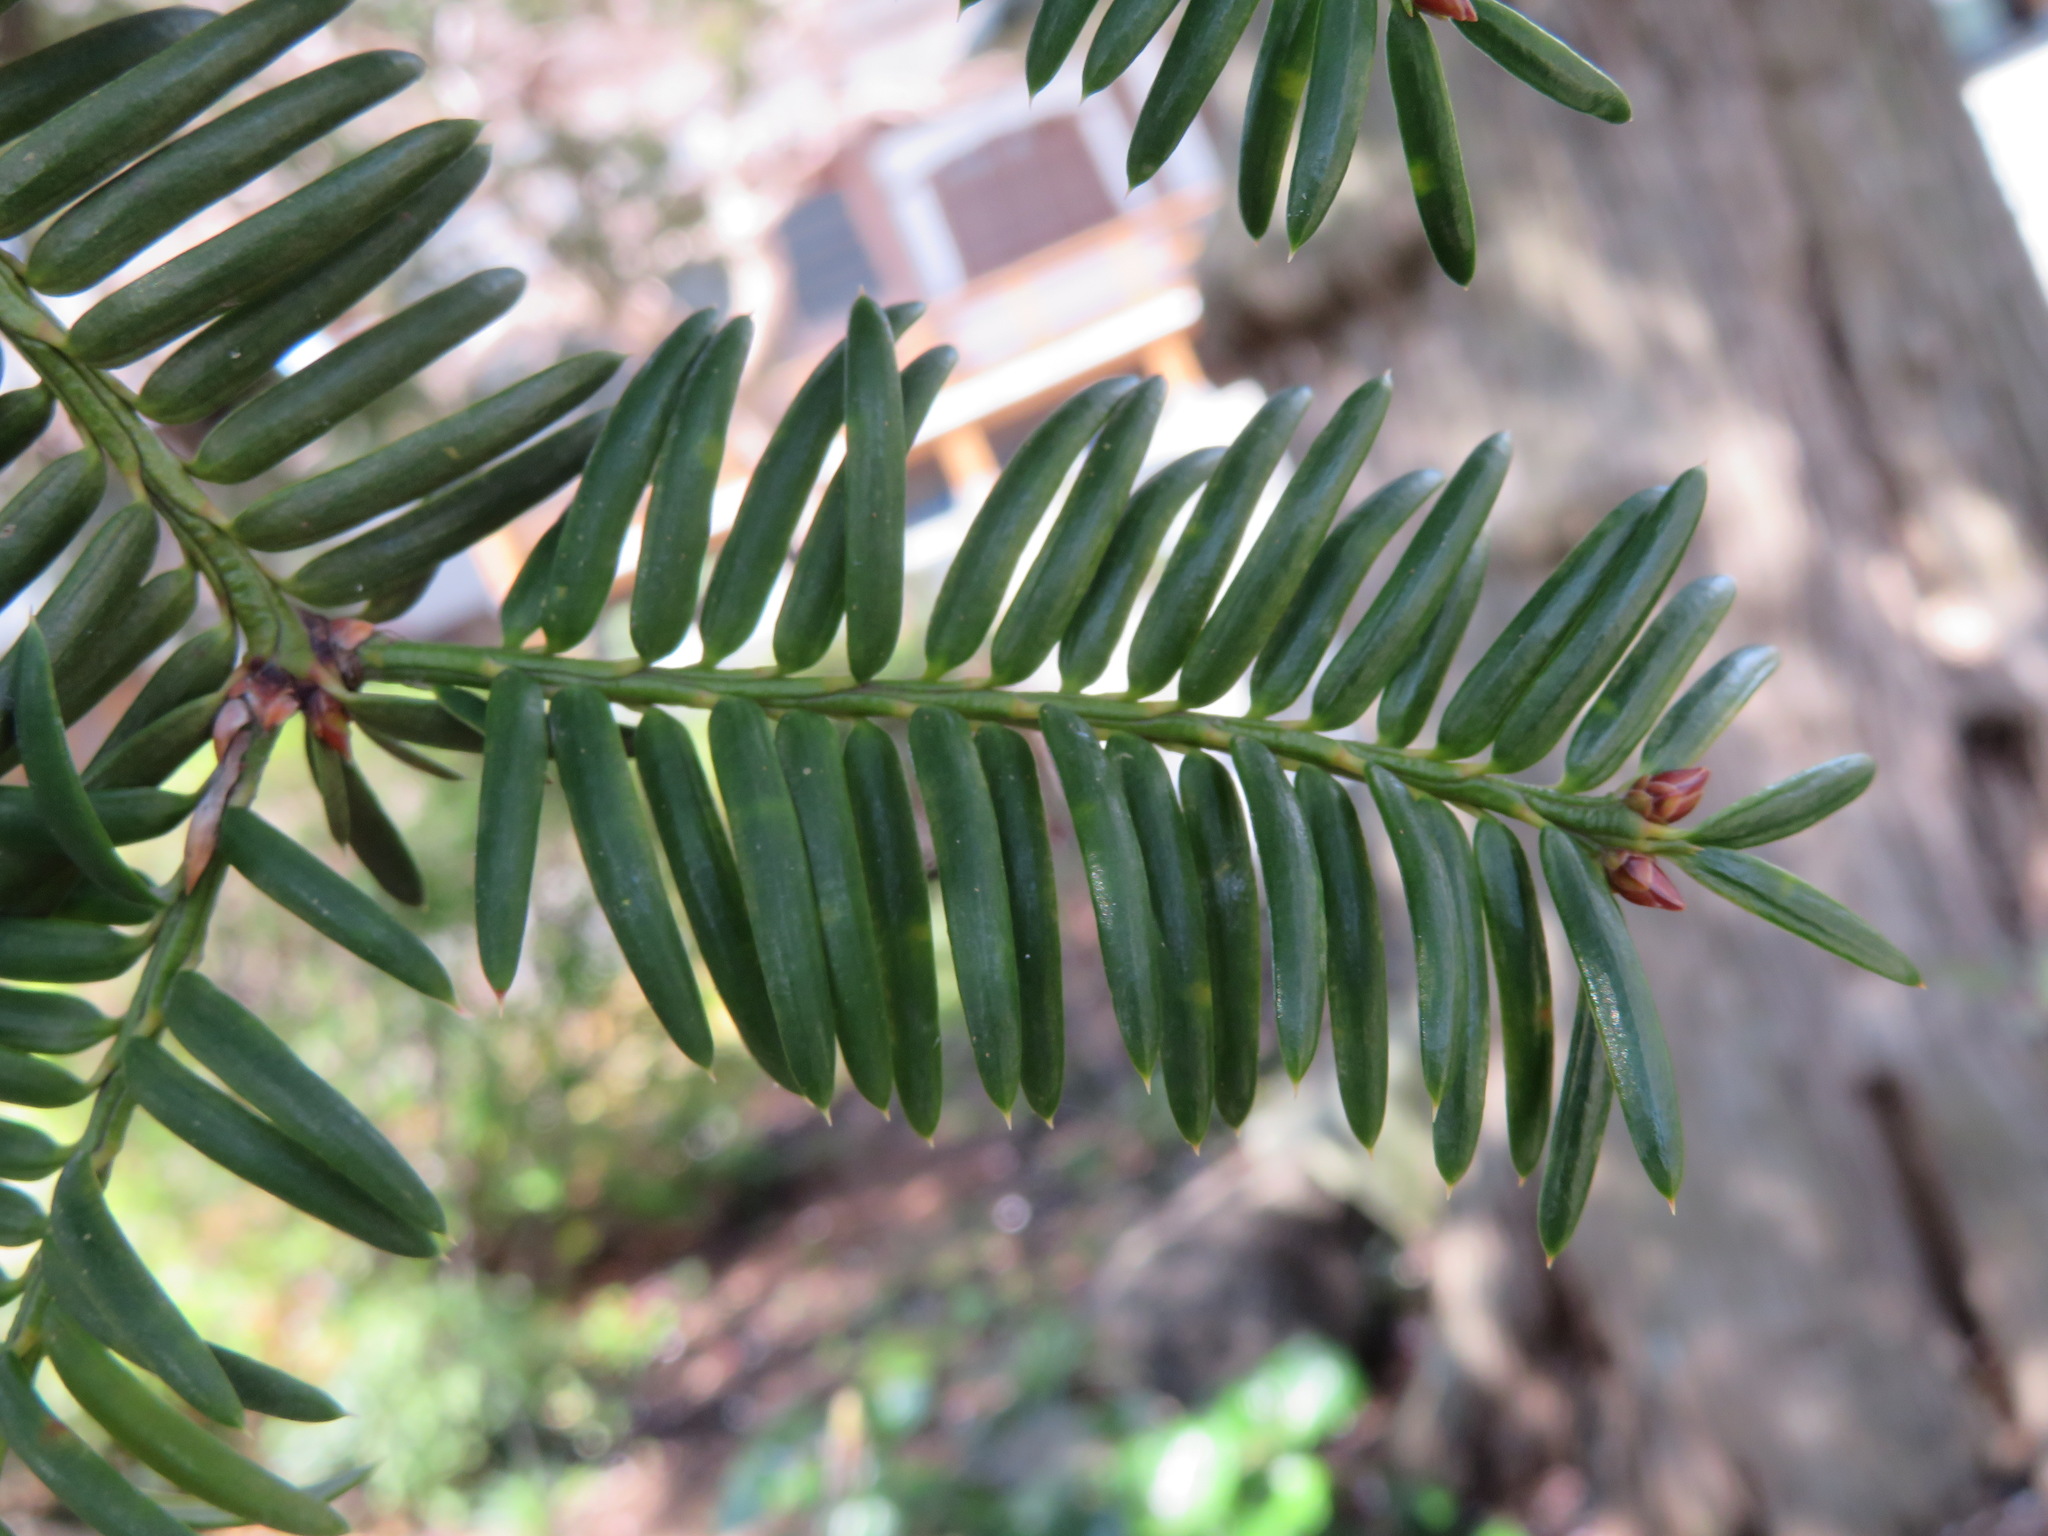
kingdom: Plantae
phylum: Tracheophyta
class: Pinopsida
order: Pinales
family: Taxaceae
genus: Torreya
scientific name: Torreya nucifera
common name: Japanese nutmeg tree
